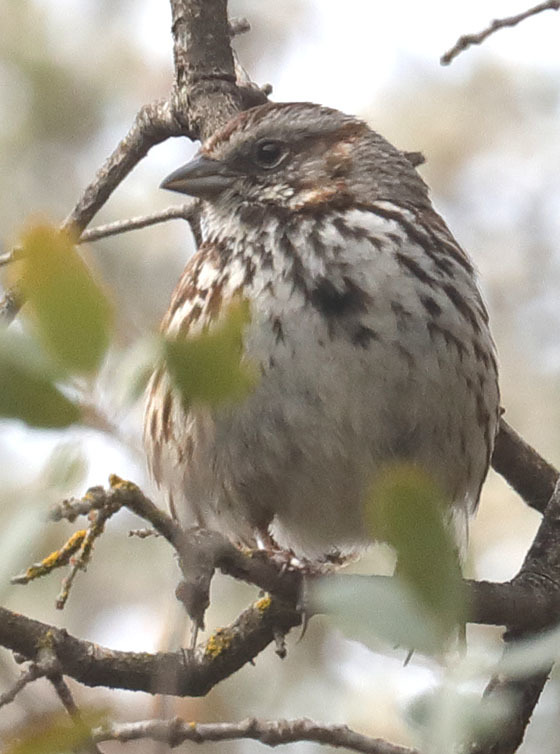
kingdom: Animalia
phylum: Chordata
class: Aves
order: Passeriformes
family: Passerellidae
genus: Melospiza
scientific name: Melospiza melodia
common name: Song sparrow
